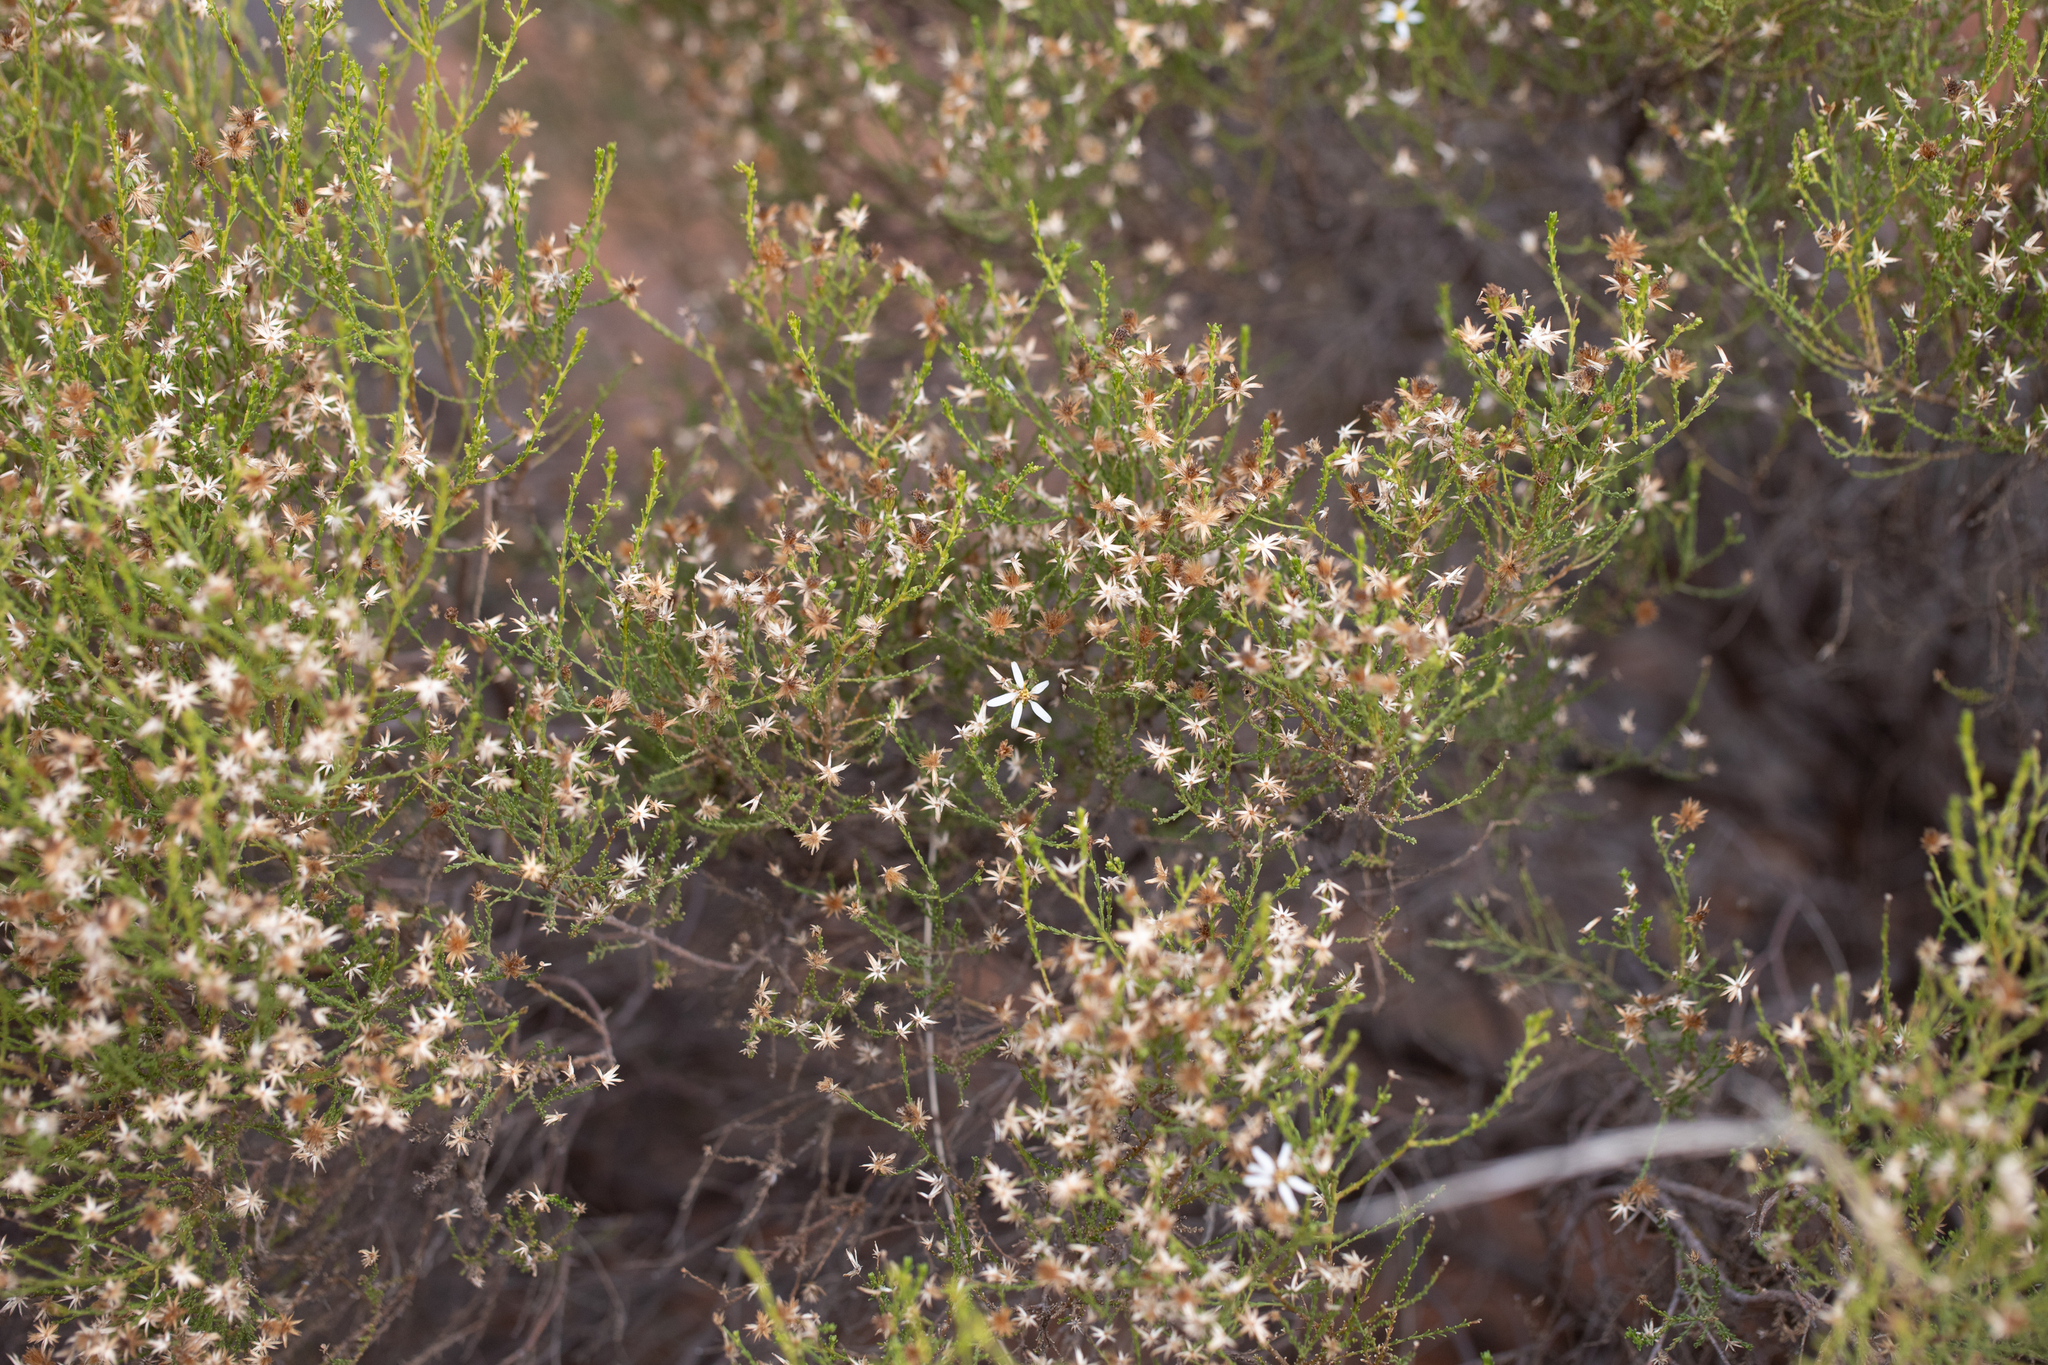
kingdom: Plantae
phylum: Tracheophyta
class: Magnoliopsida
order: Asterales
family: Asteraceae
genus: Olearia
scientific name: Olearia passerinoides
